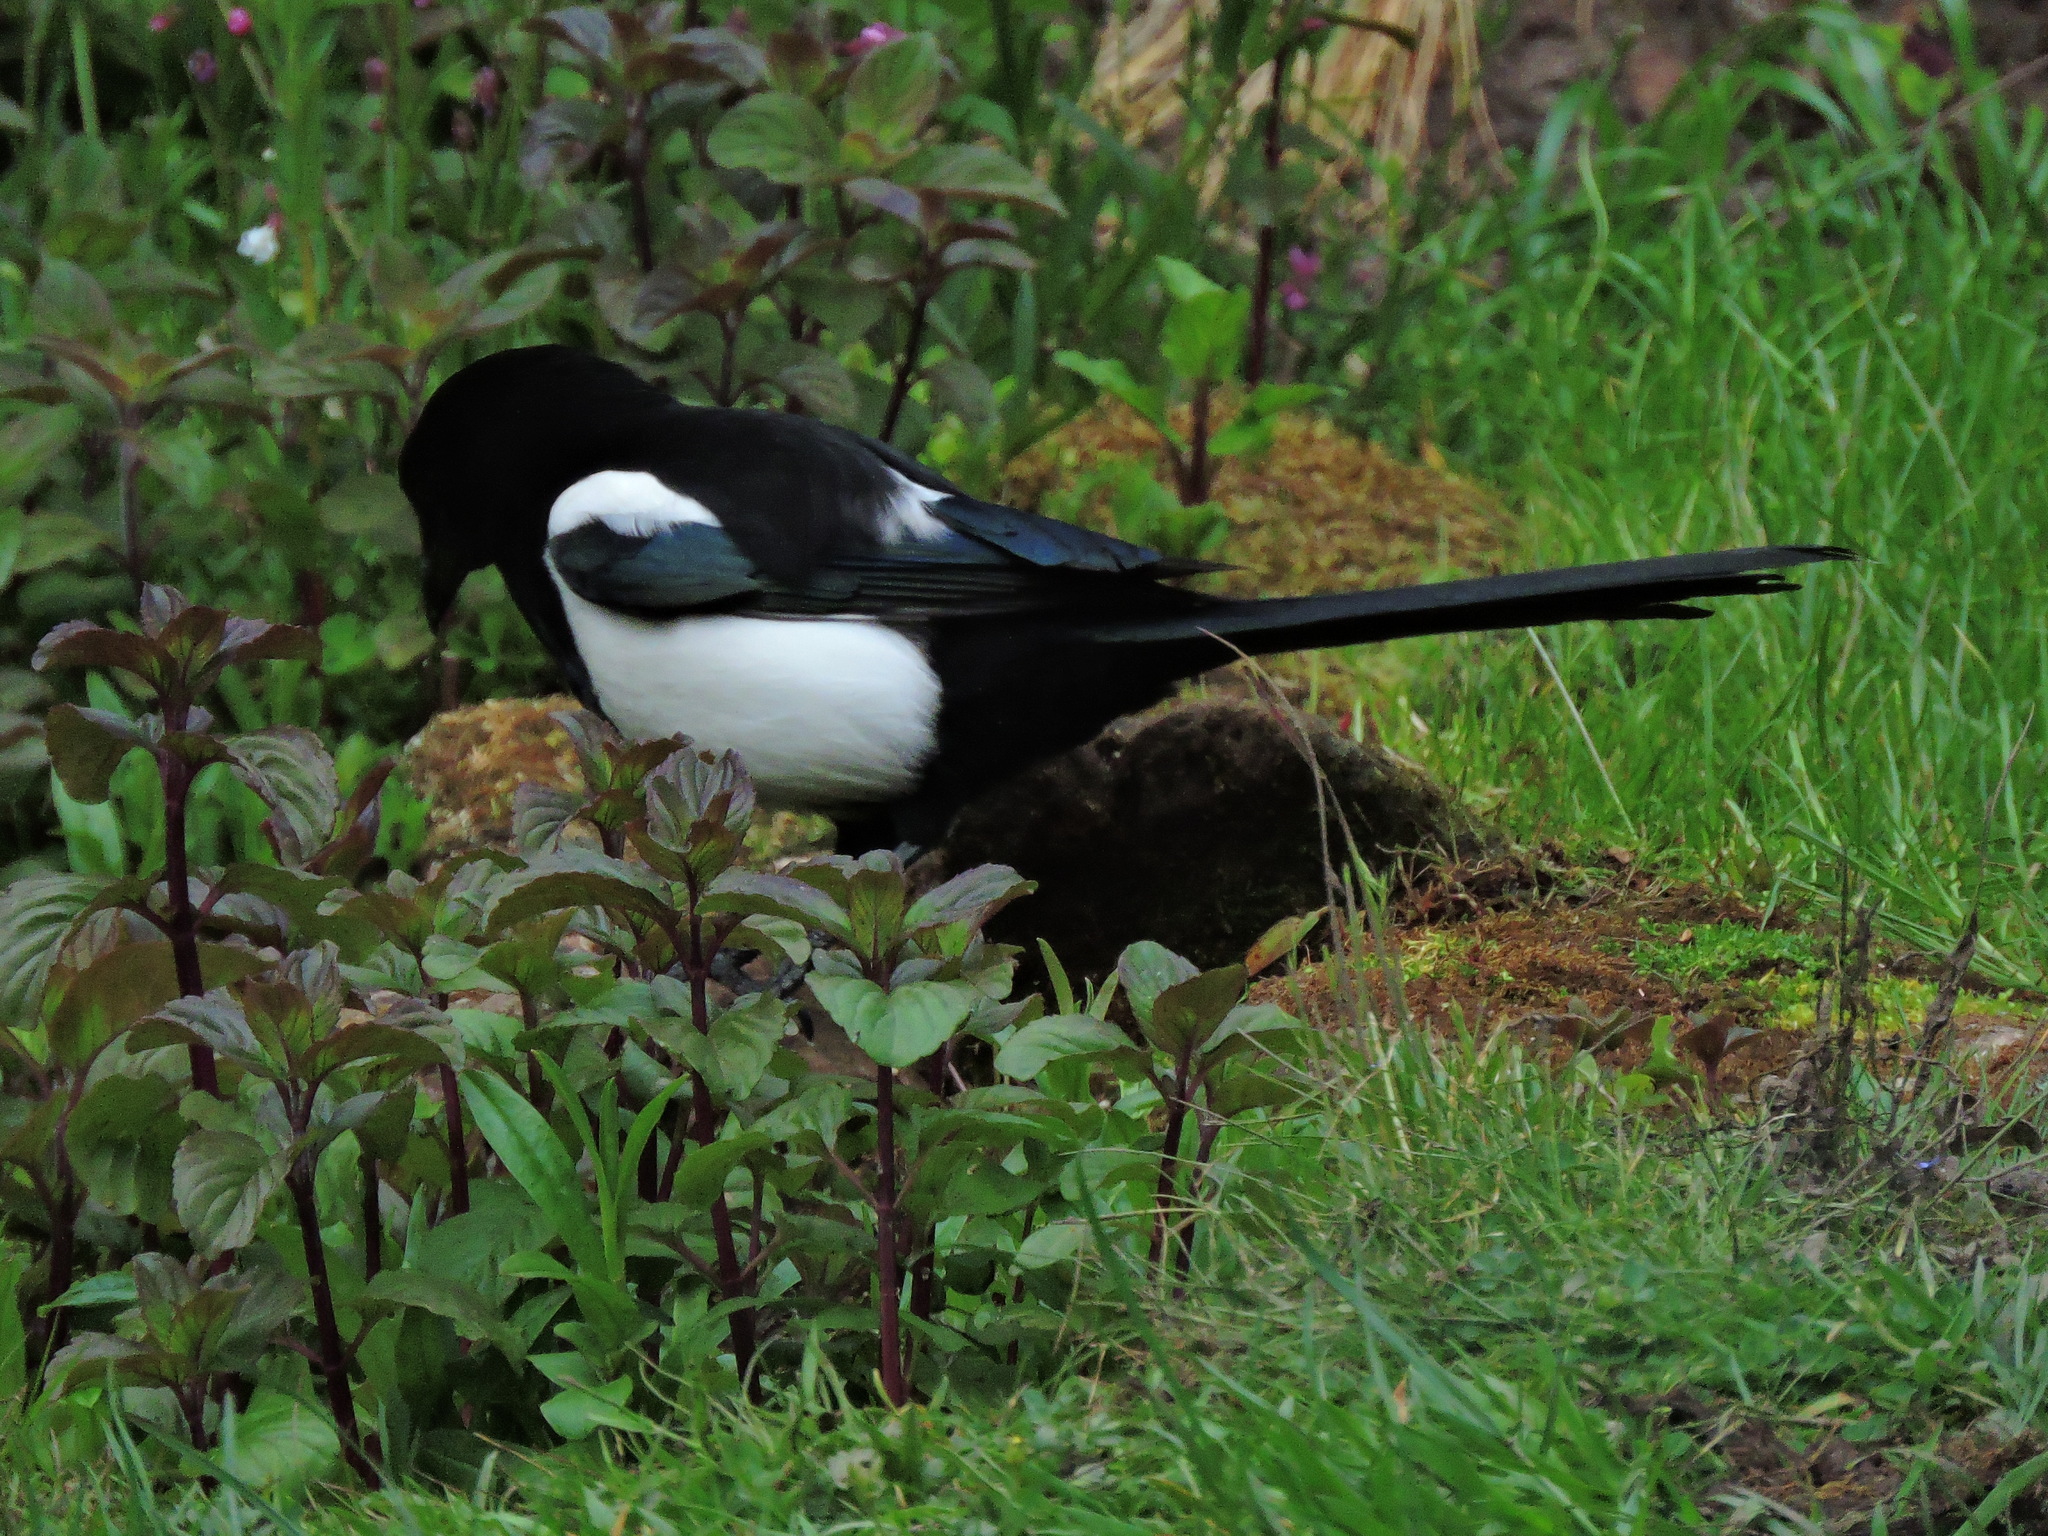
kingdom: Animalia
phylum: Chordata
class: Aves
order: Passeriformes
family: Corvidae
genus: Pica
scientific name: Pica pica
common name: Eurasian magpie
